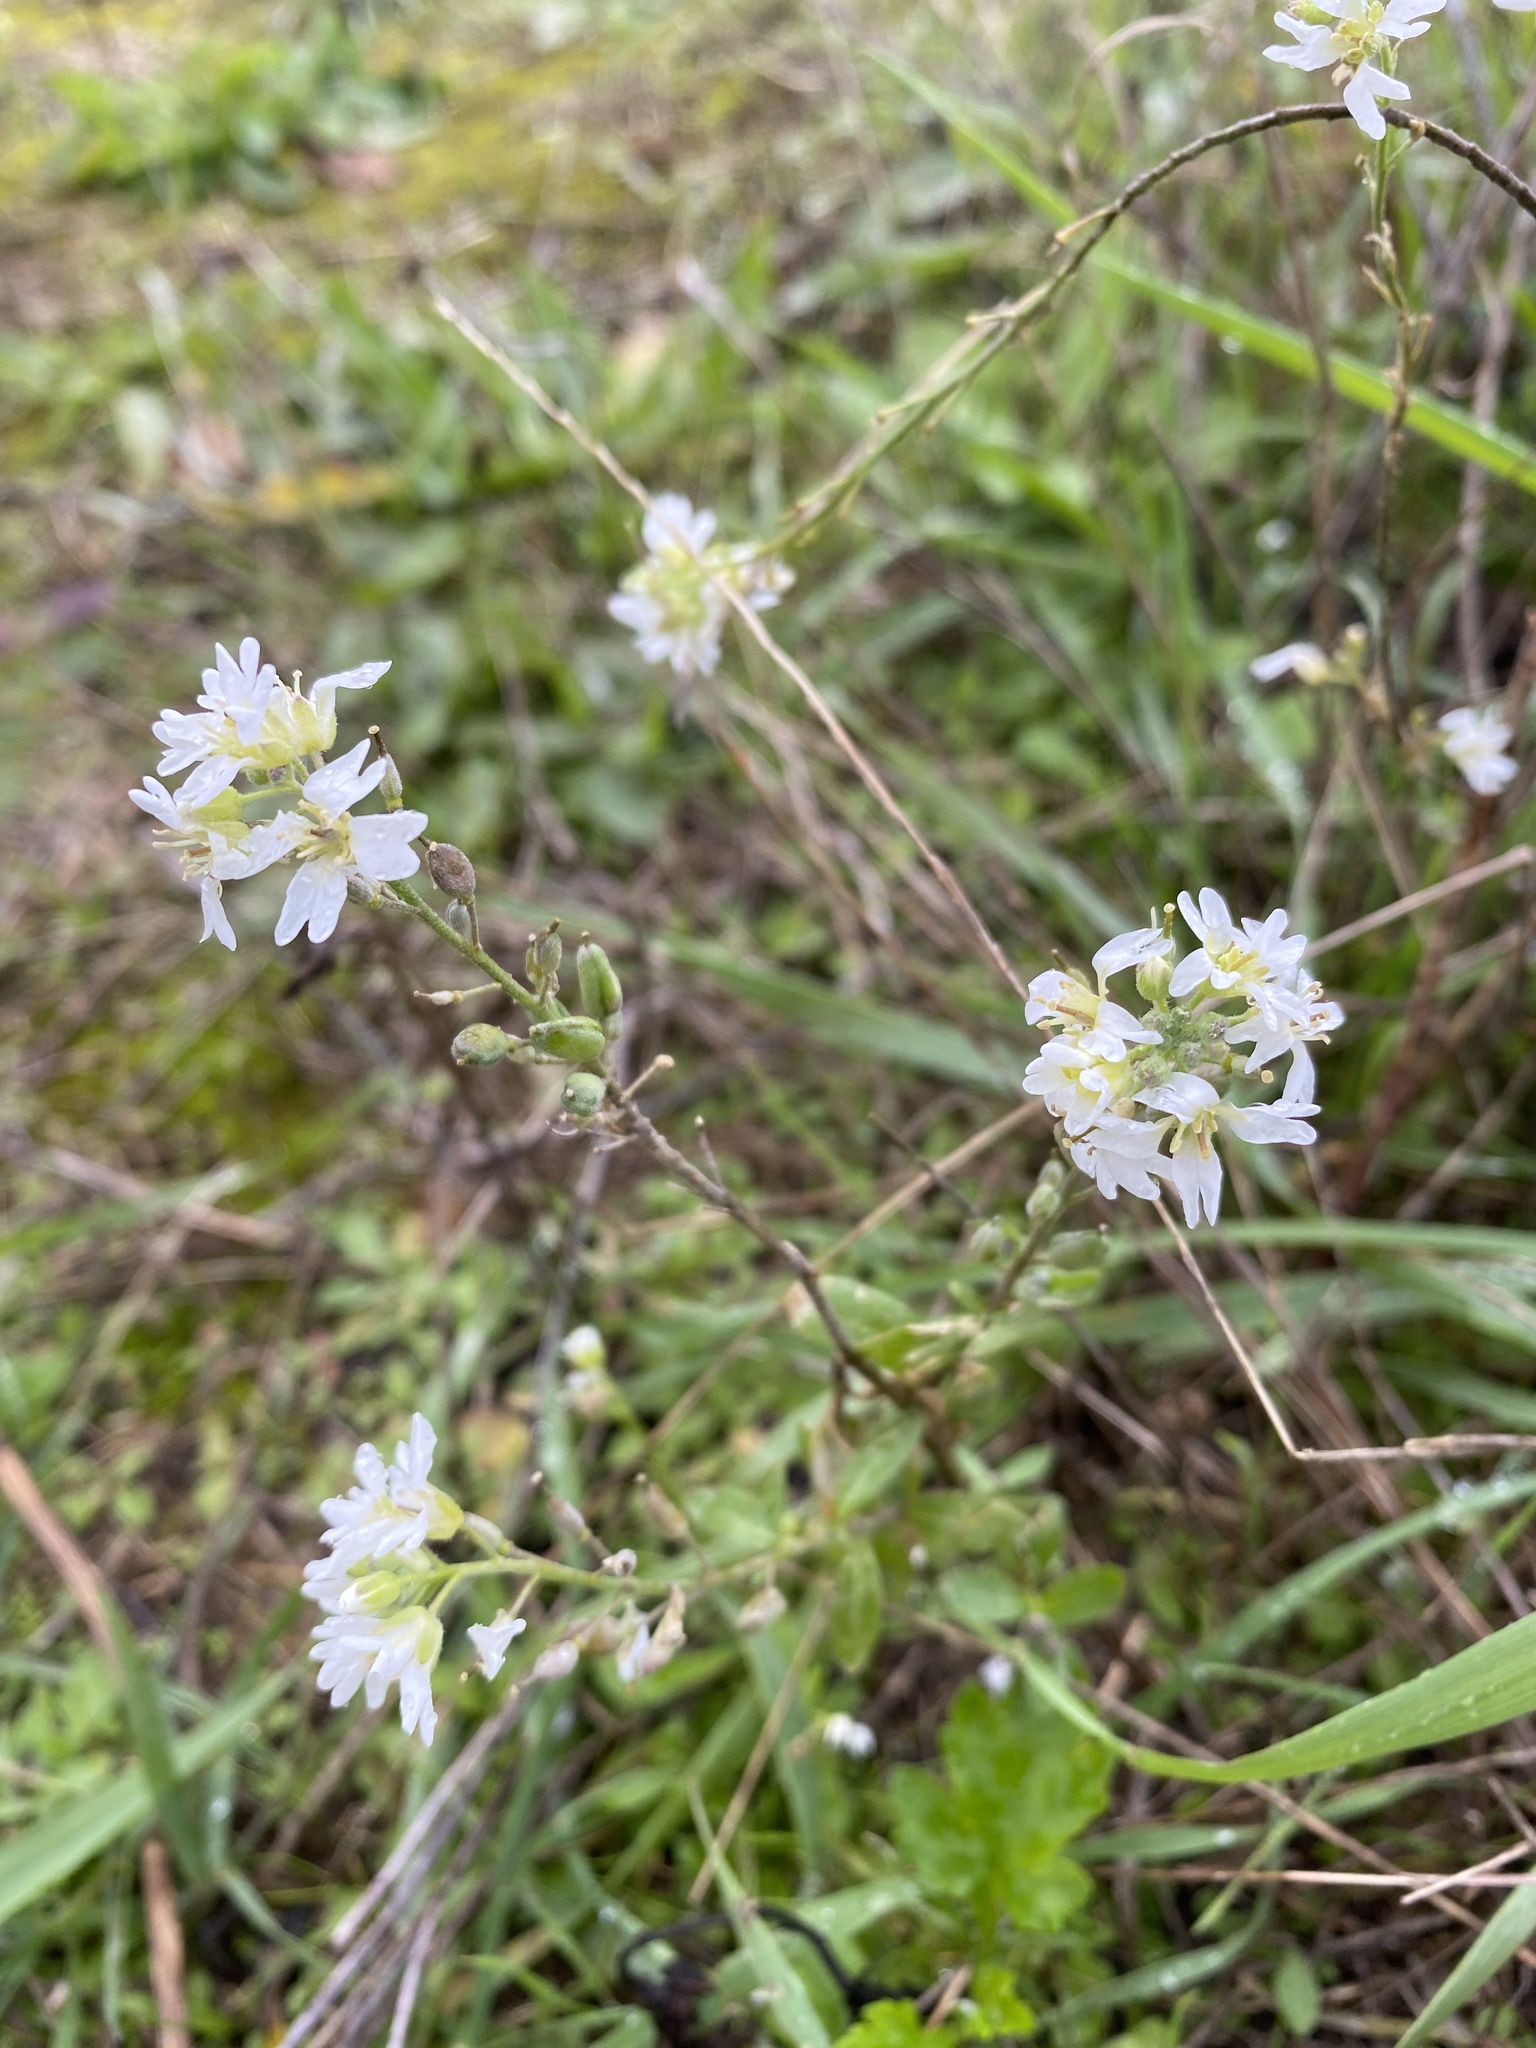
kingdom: Plantae
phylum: Tracheophyta
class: Magnoliopsida
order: Brassicales
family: Brassicaceae
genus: Berteroa
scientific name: Berteroa incana
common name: Hoary alison
